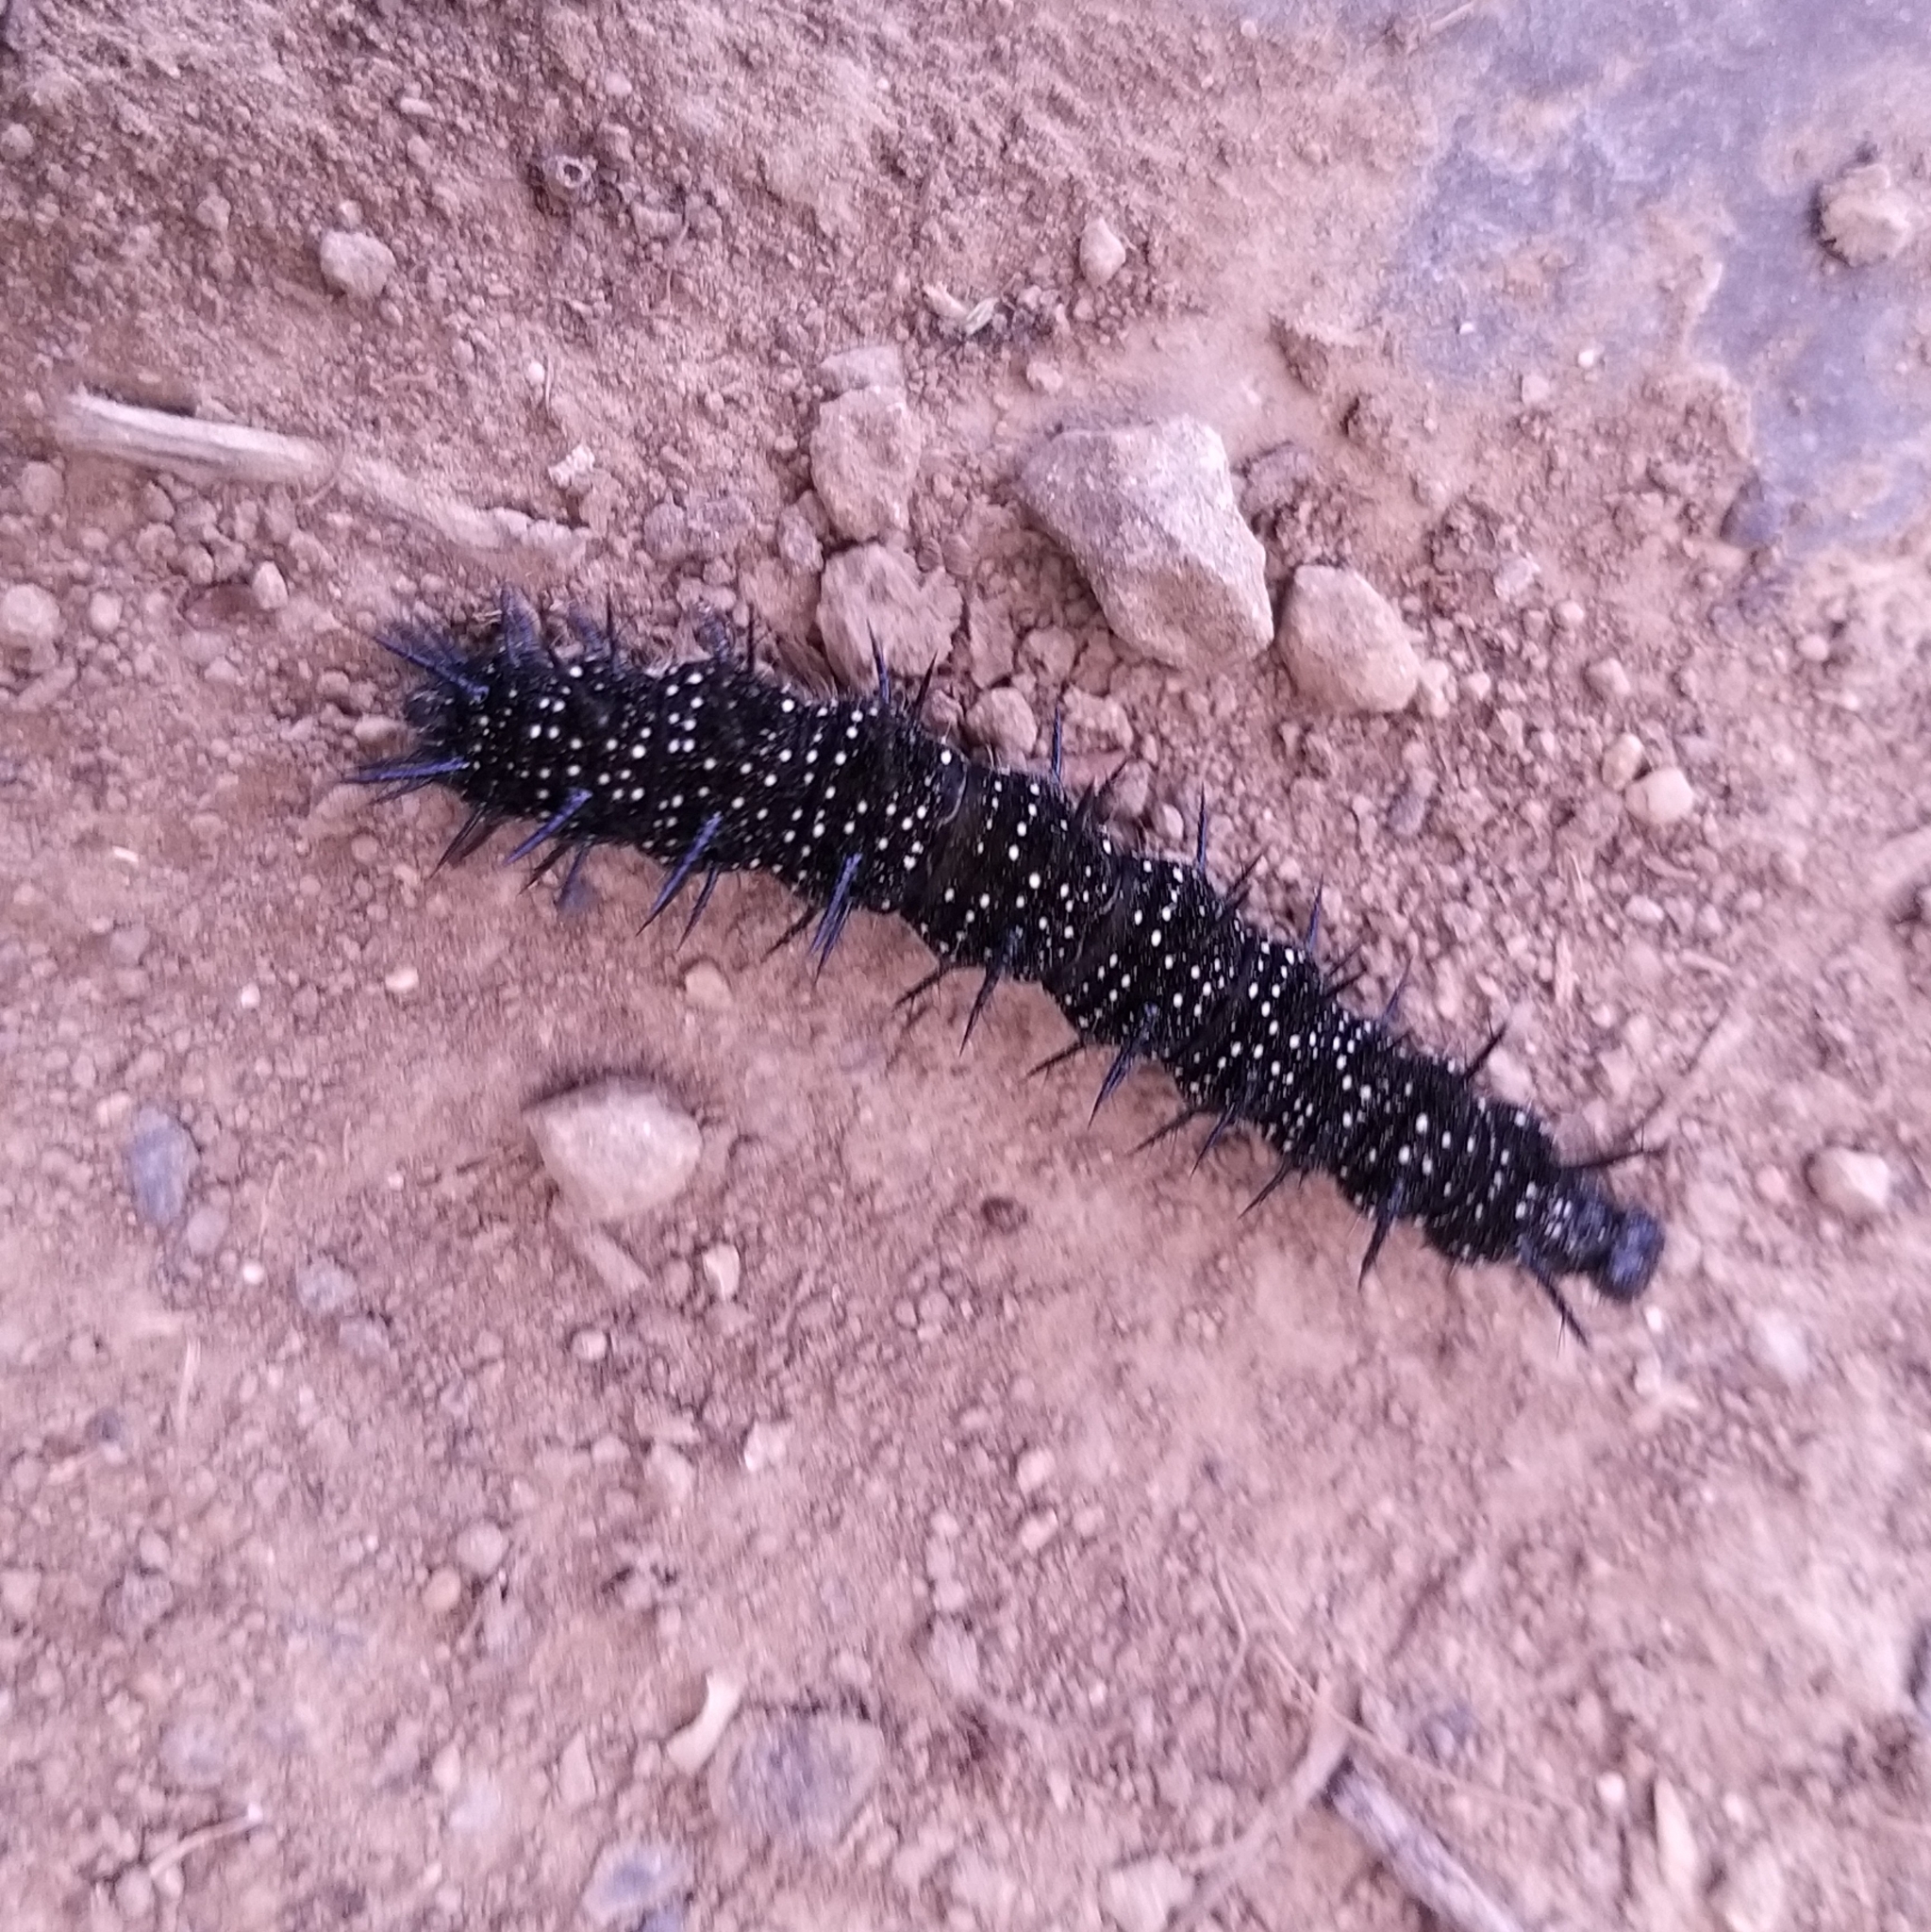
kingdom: Animalia
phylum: Arthropoda
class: Insecta
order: Lepidoptera
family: Nymphalidae
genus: Aglais
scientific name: Aglais io
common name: Peacock
